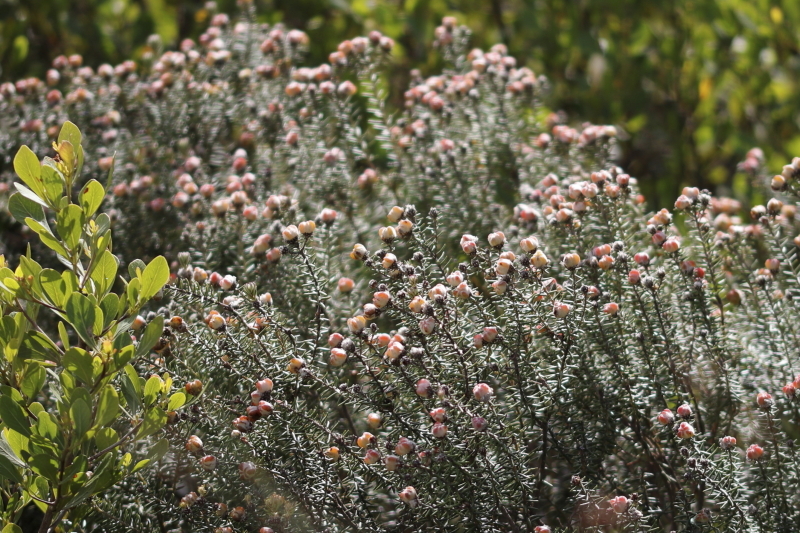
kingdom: Plantae
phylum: Tracheophyta
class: Magnoliopsida
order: Rosales
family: Rhamnaceae
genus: Trichocephalus
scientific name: Trichocephalus stipularis
